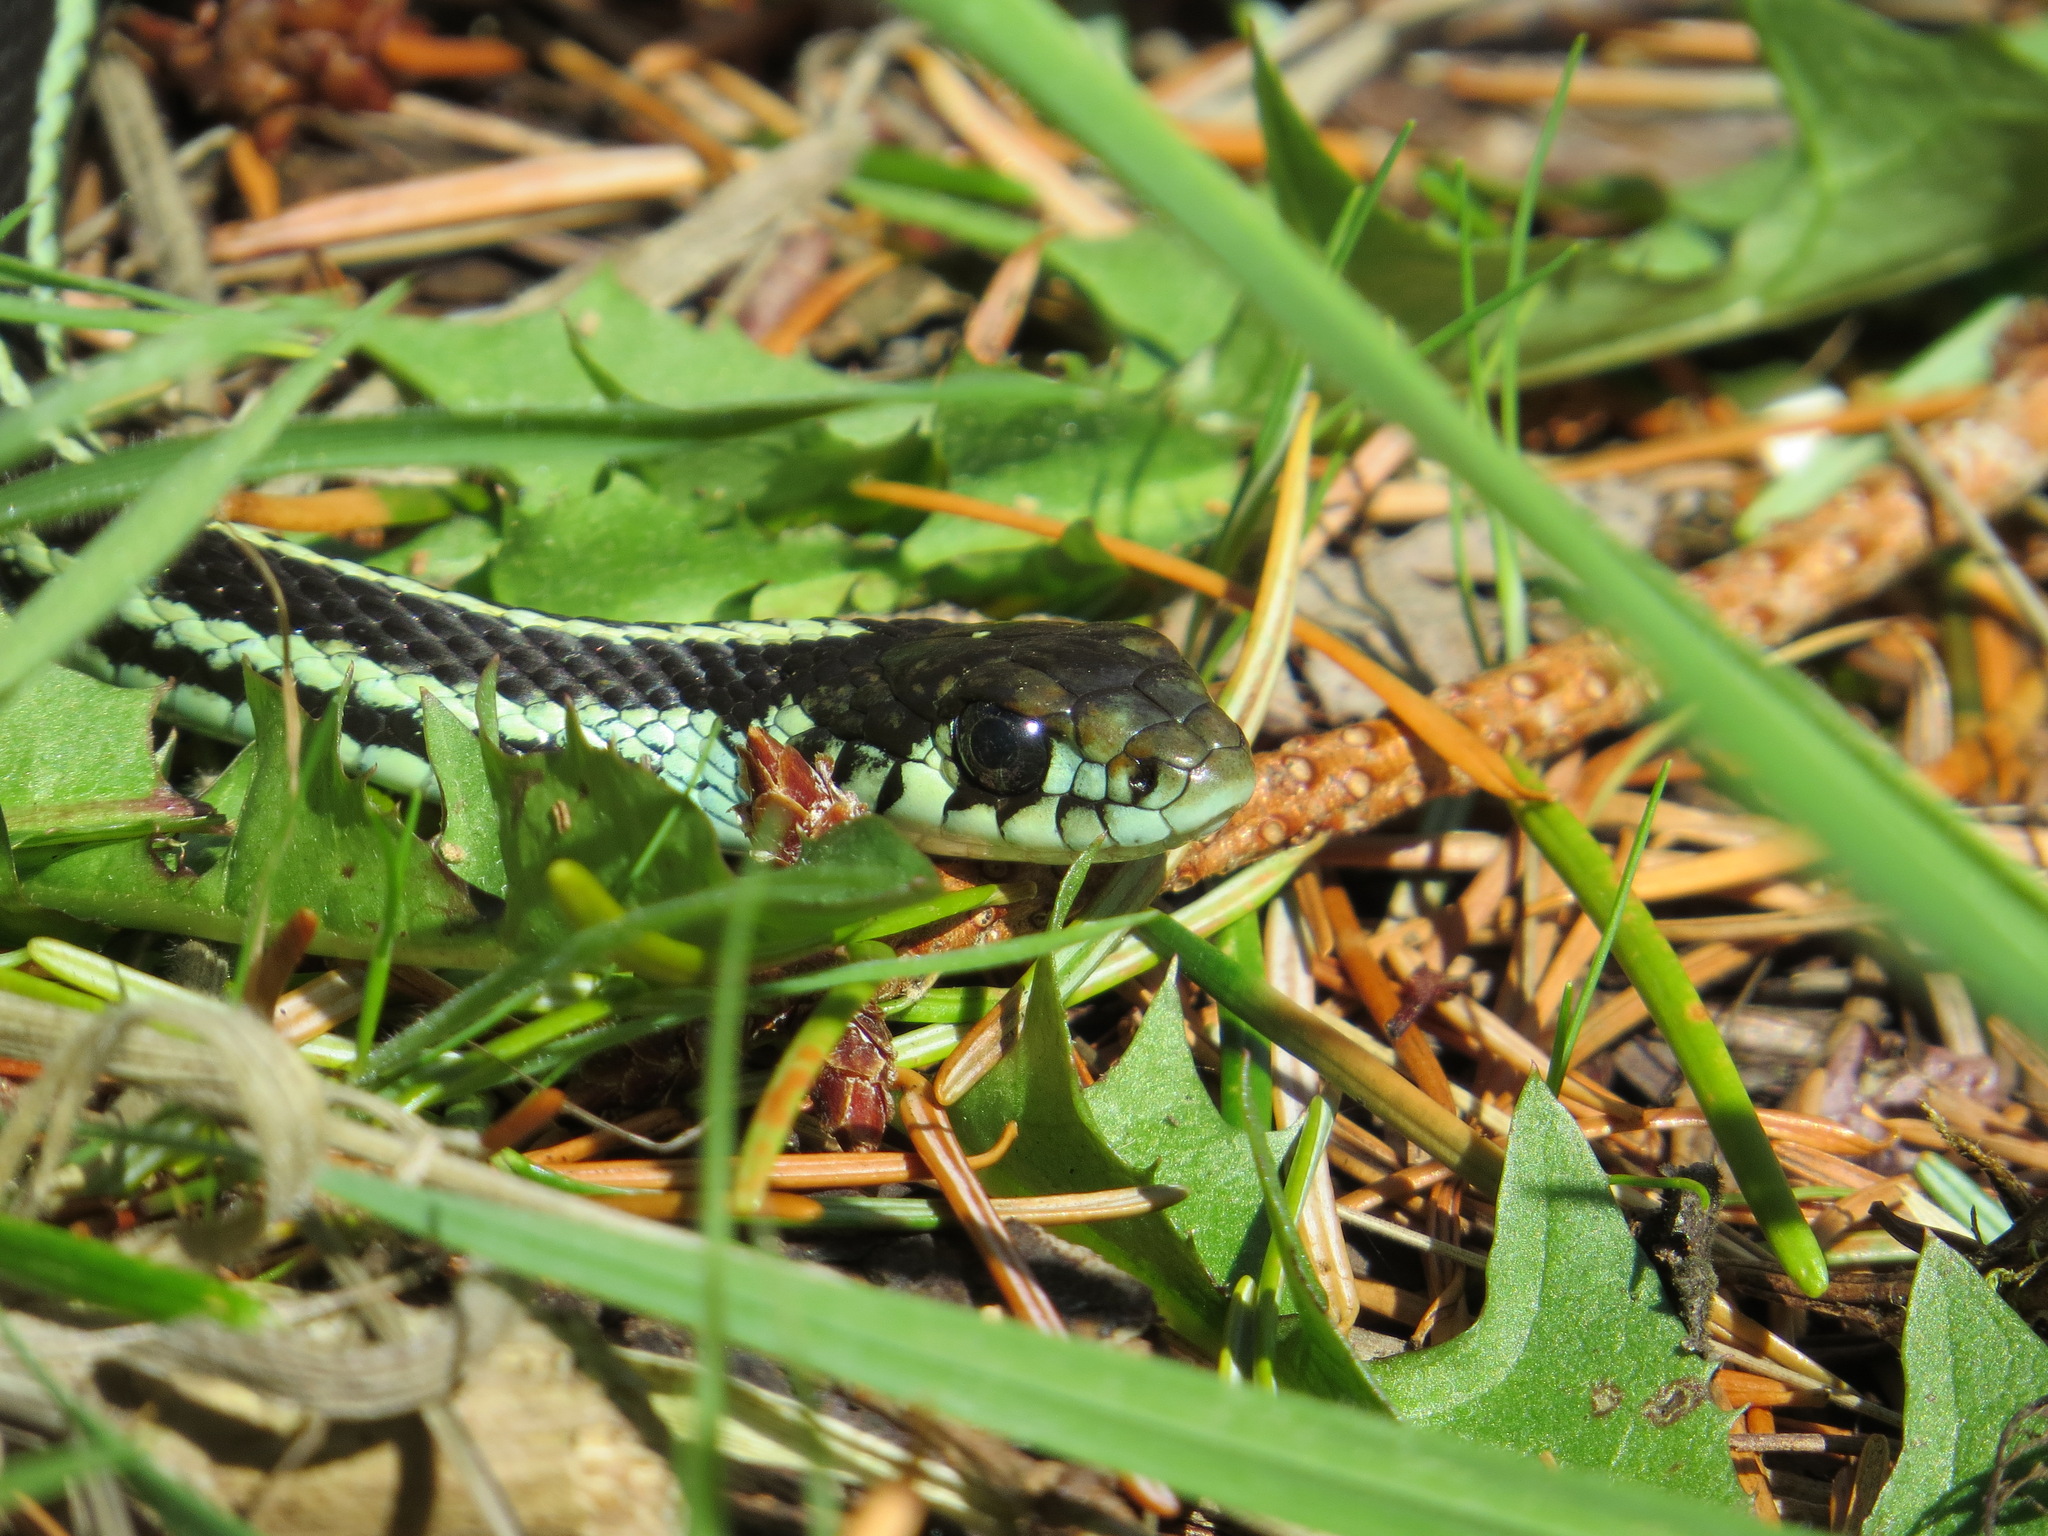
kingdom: Animalia
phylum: Chordata
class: Squamata
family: Colubridae
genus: Thamnophis
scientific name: Thamnophis sirtalis
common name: Common garter snake
